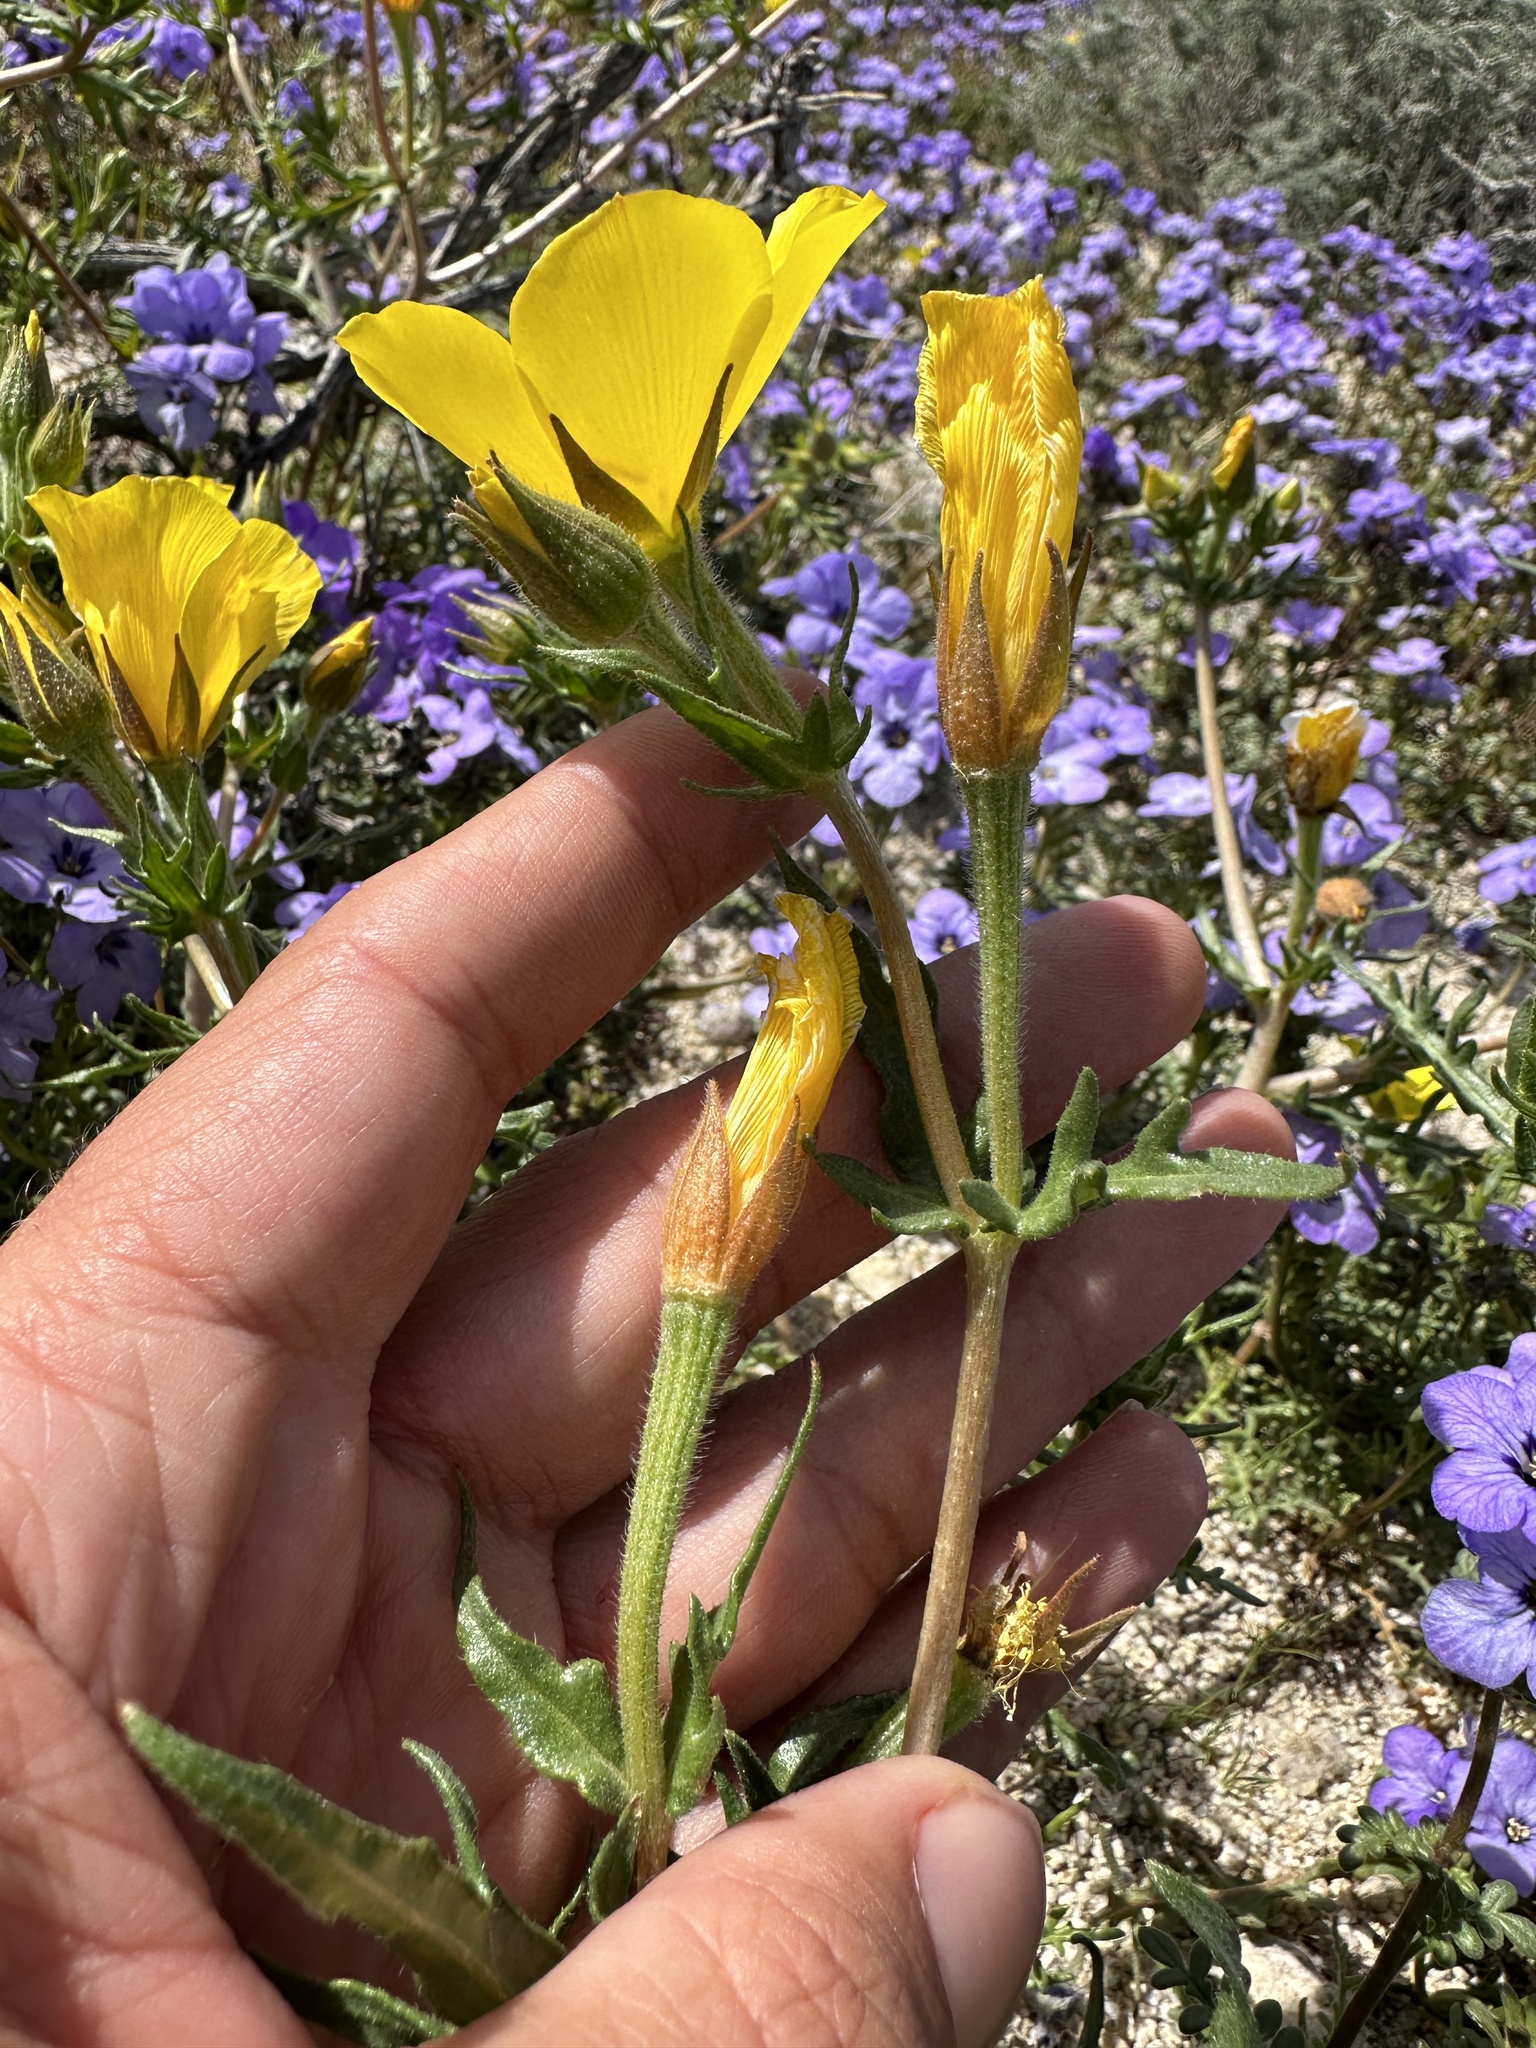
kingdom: Plantae
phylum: Tracheophyta
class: Magnoliopsida
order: Cornales
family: Loasaceae
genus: Mentzelia
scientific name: Mentzelia eremophila
